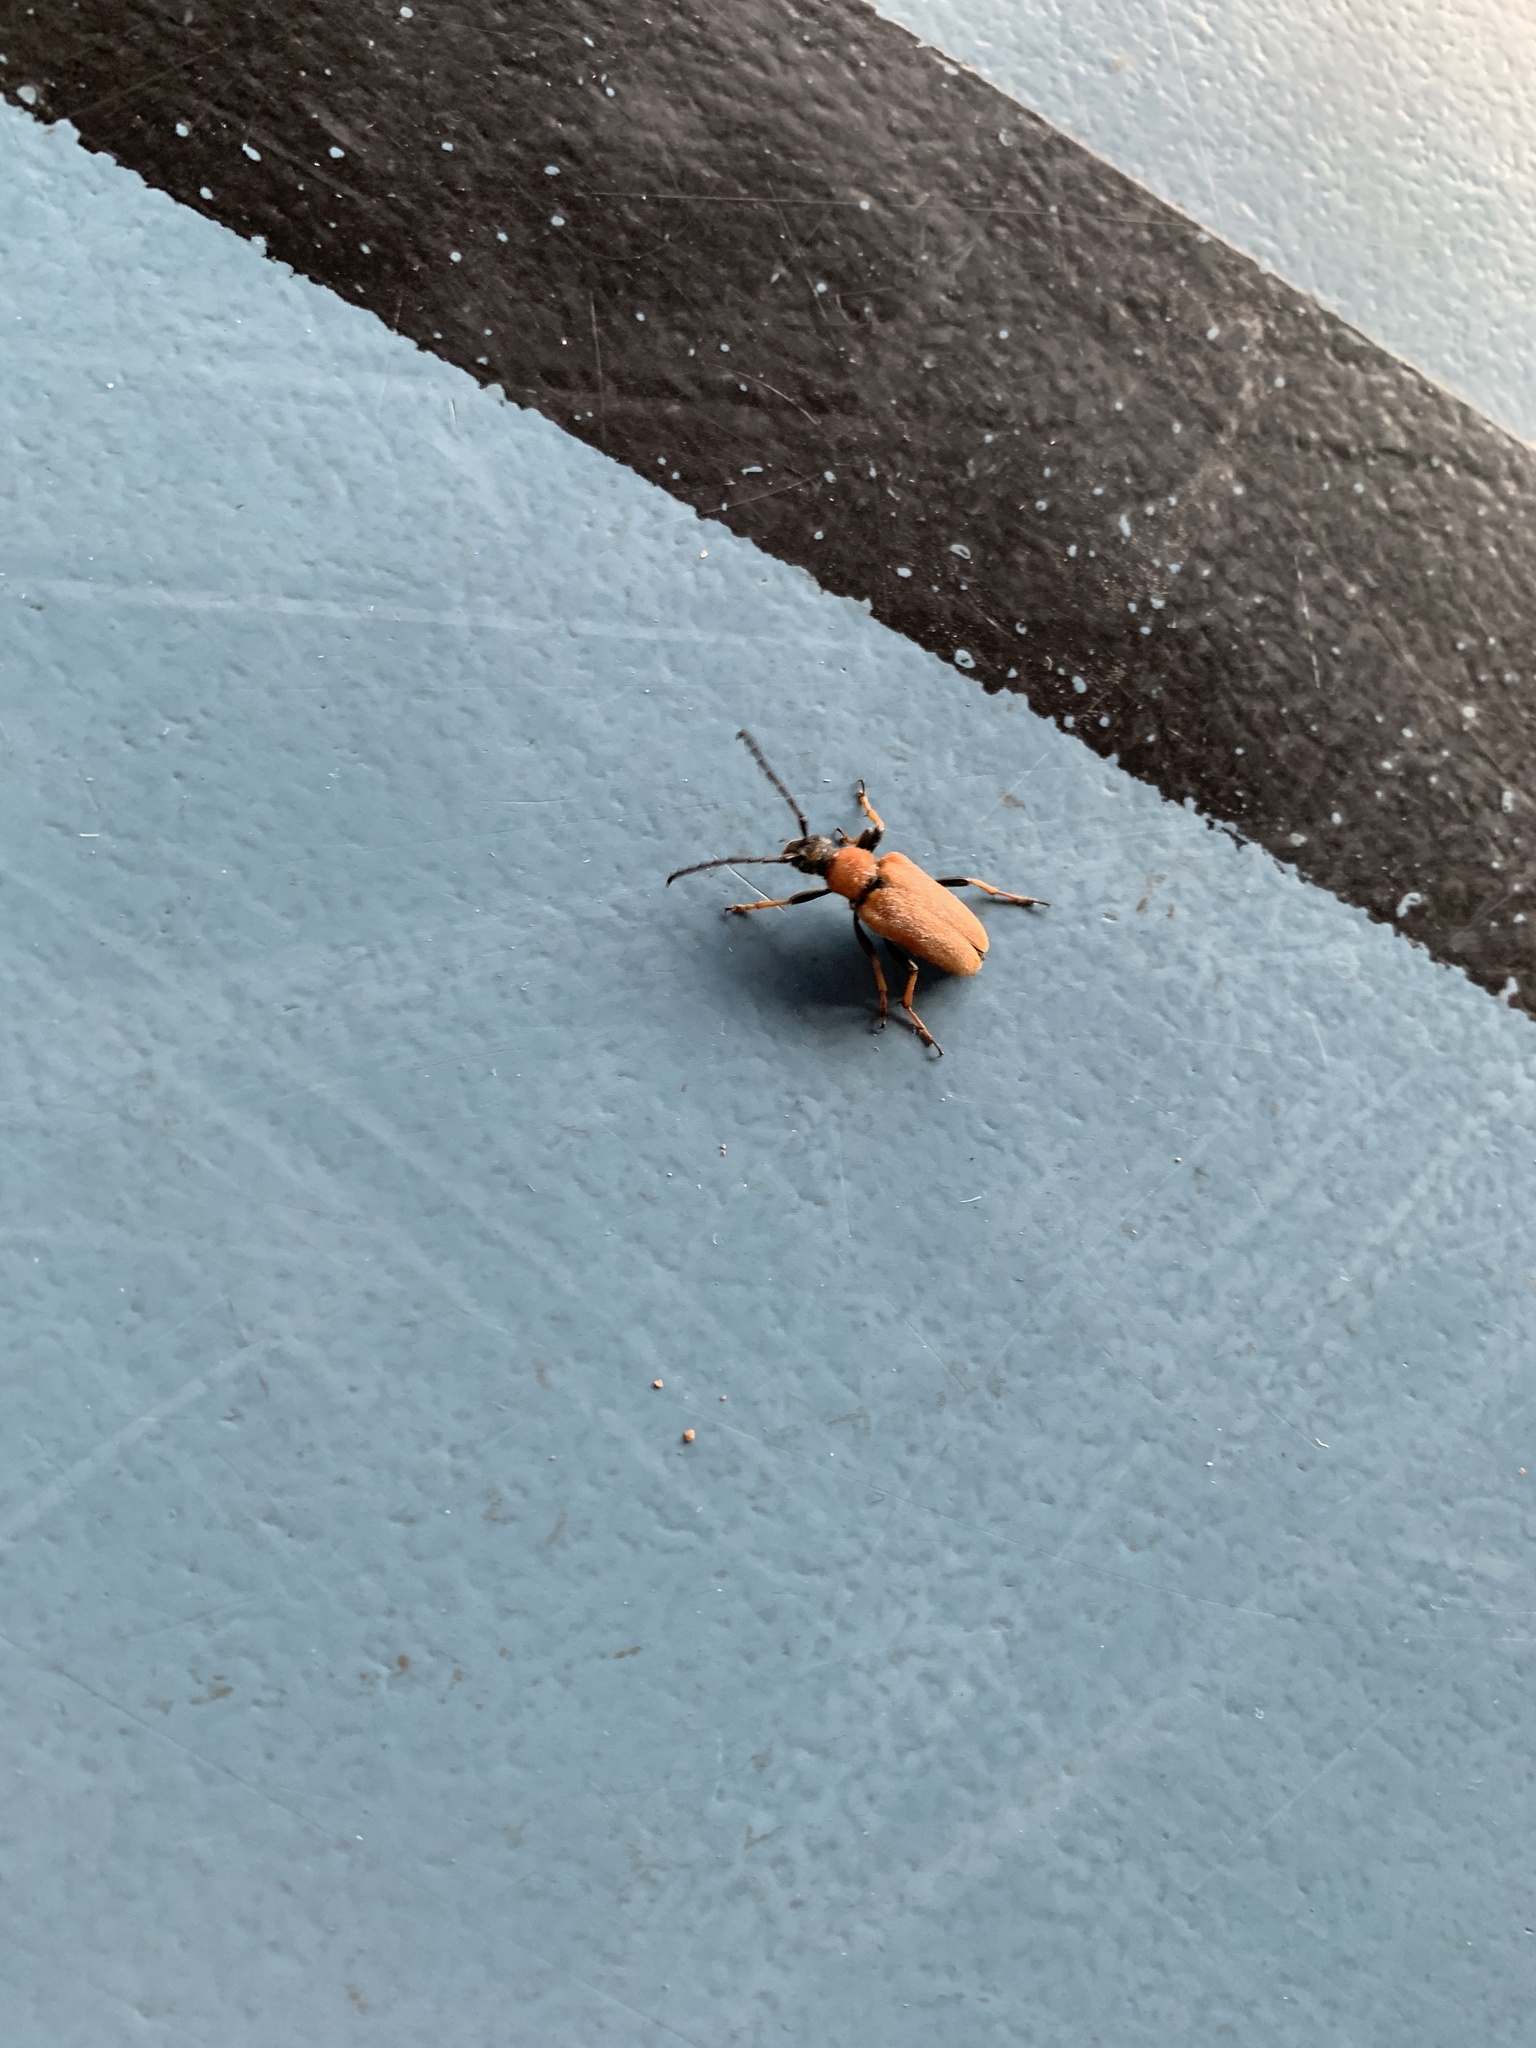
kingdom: Animalia
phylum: Arthropoda
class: Insecta
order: Coleoptera
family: Cerambycidae
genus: Stictoleptura
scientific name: Stictoleptura rubra
